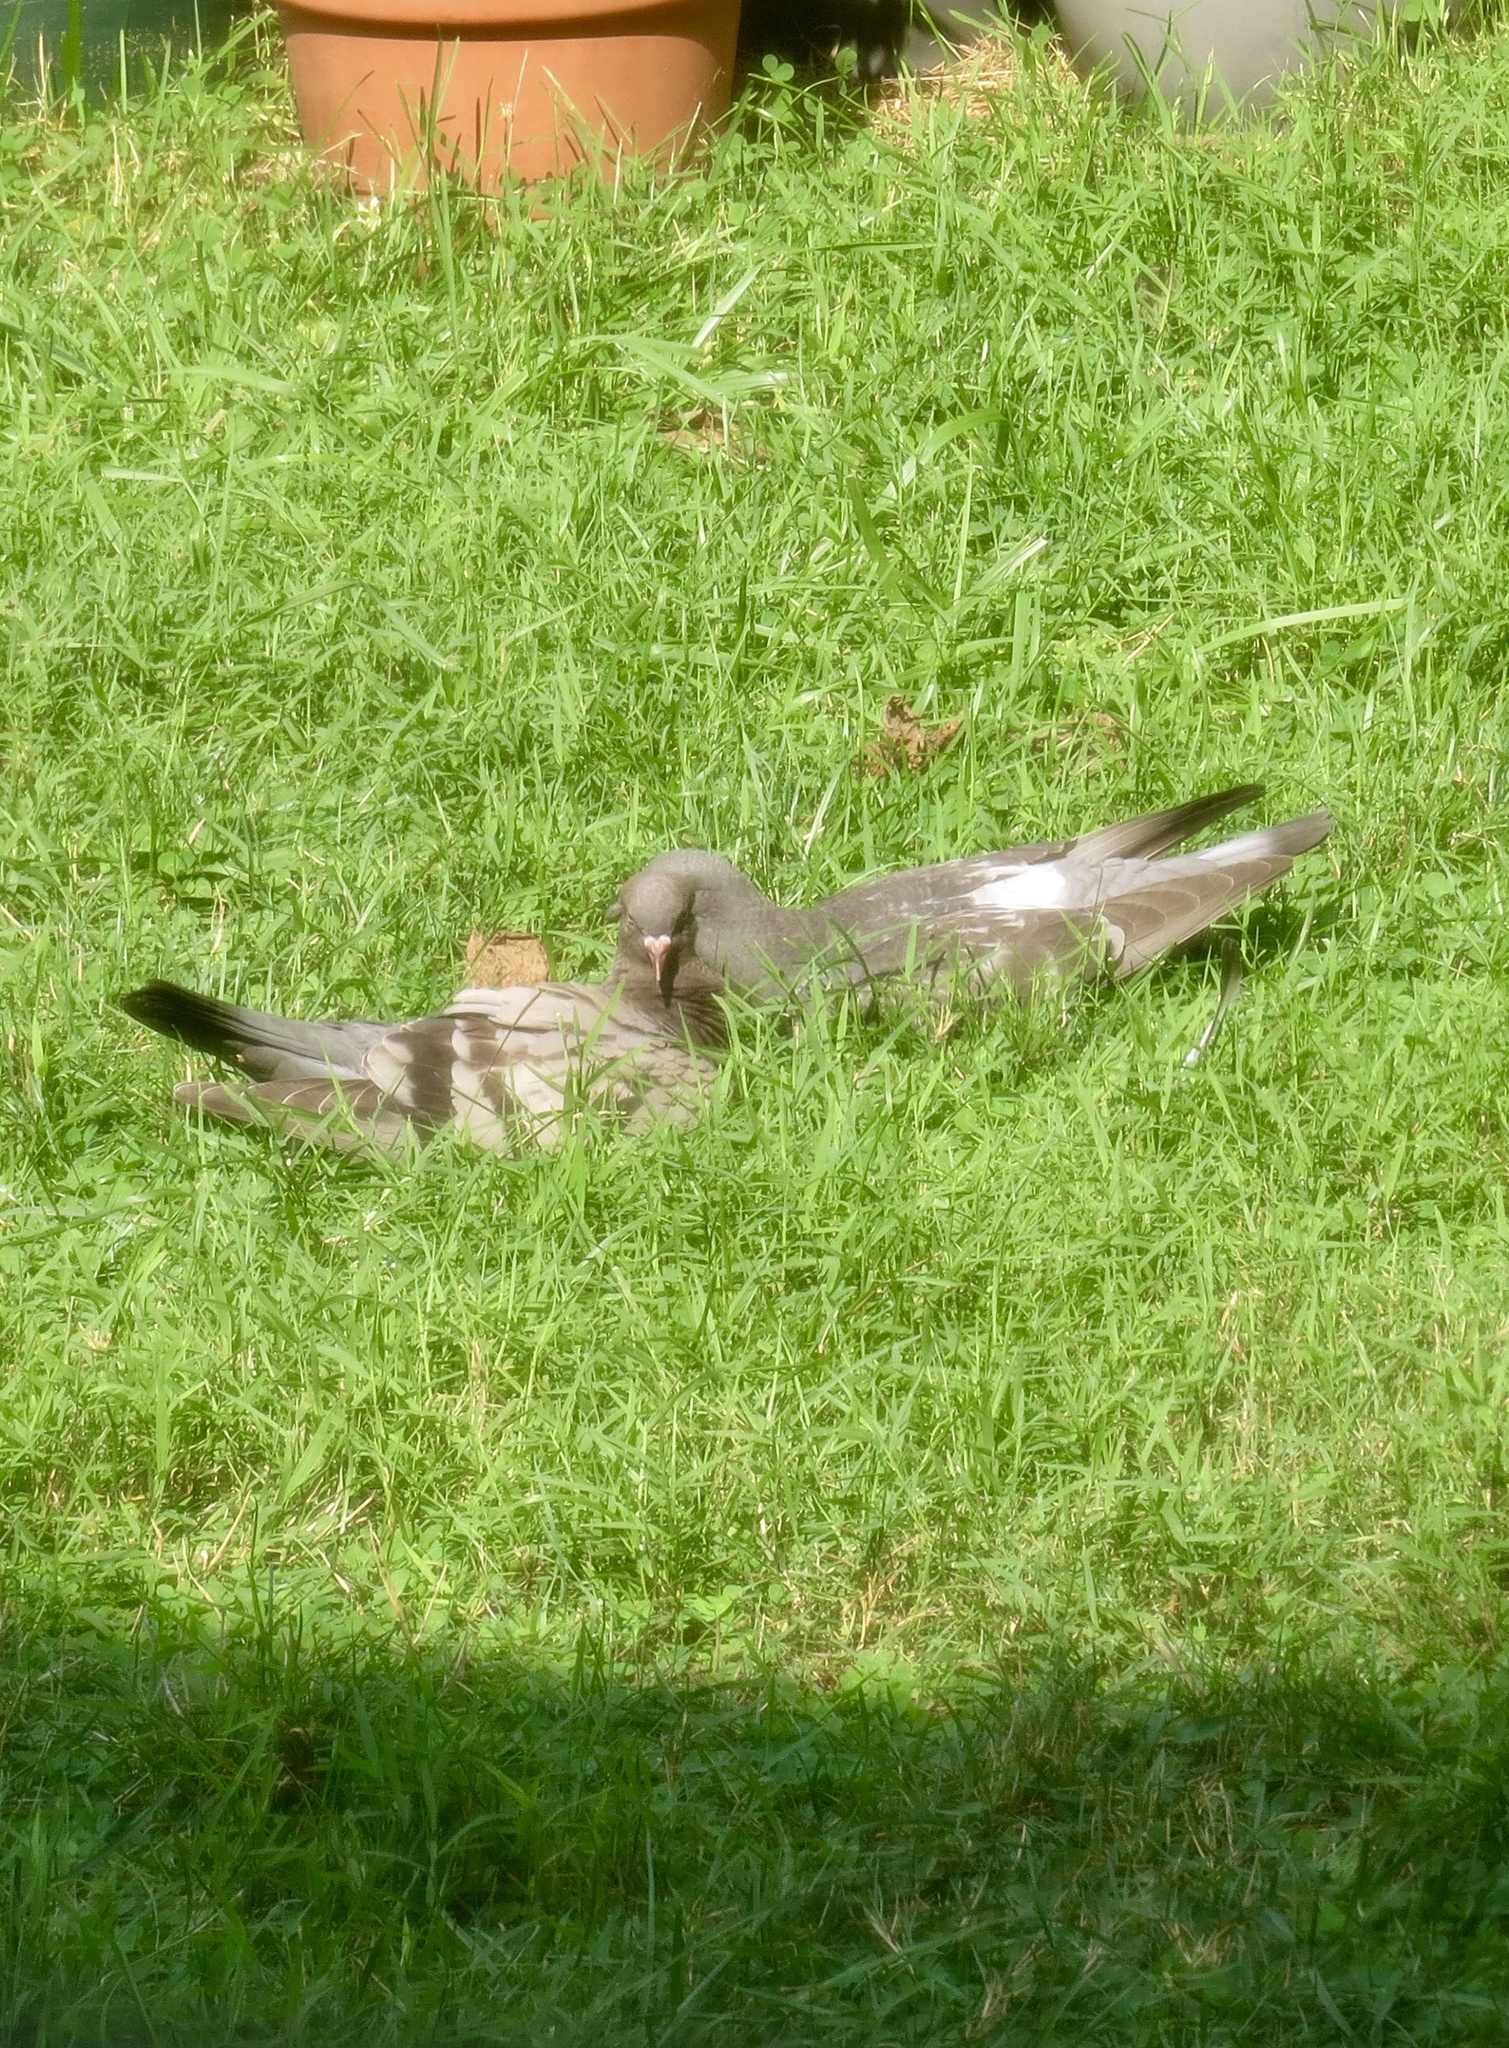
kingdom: Animalia
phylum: Chordata
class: Aves
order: Columbiformes
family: Columbidae
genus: Columba
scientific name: Columba livia
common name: Rock pigeon
